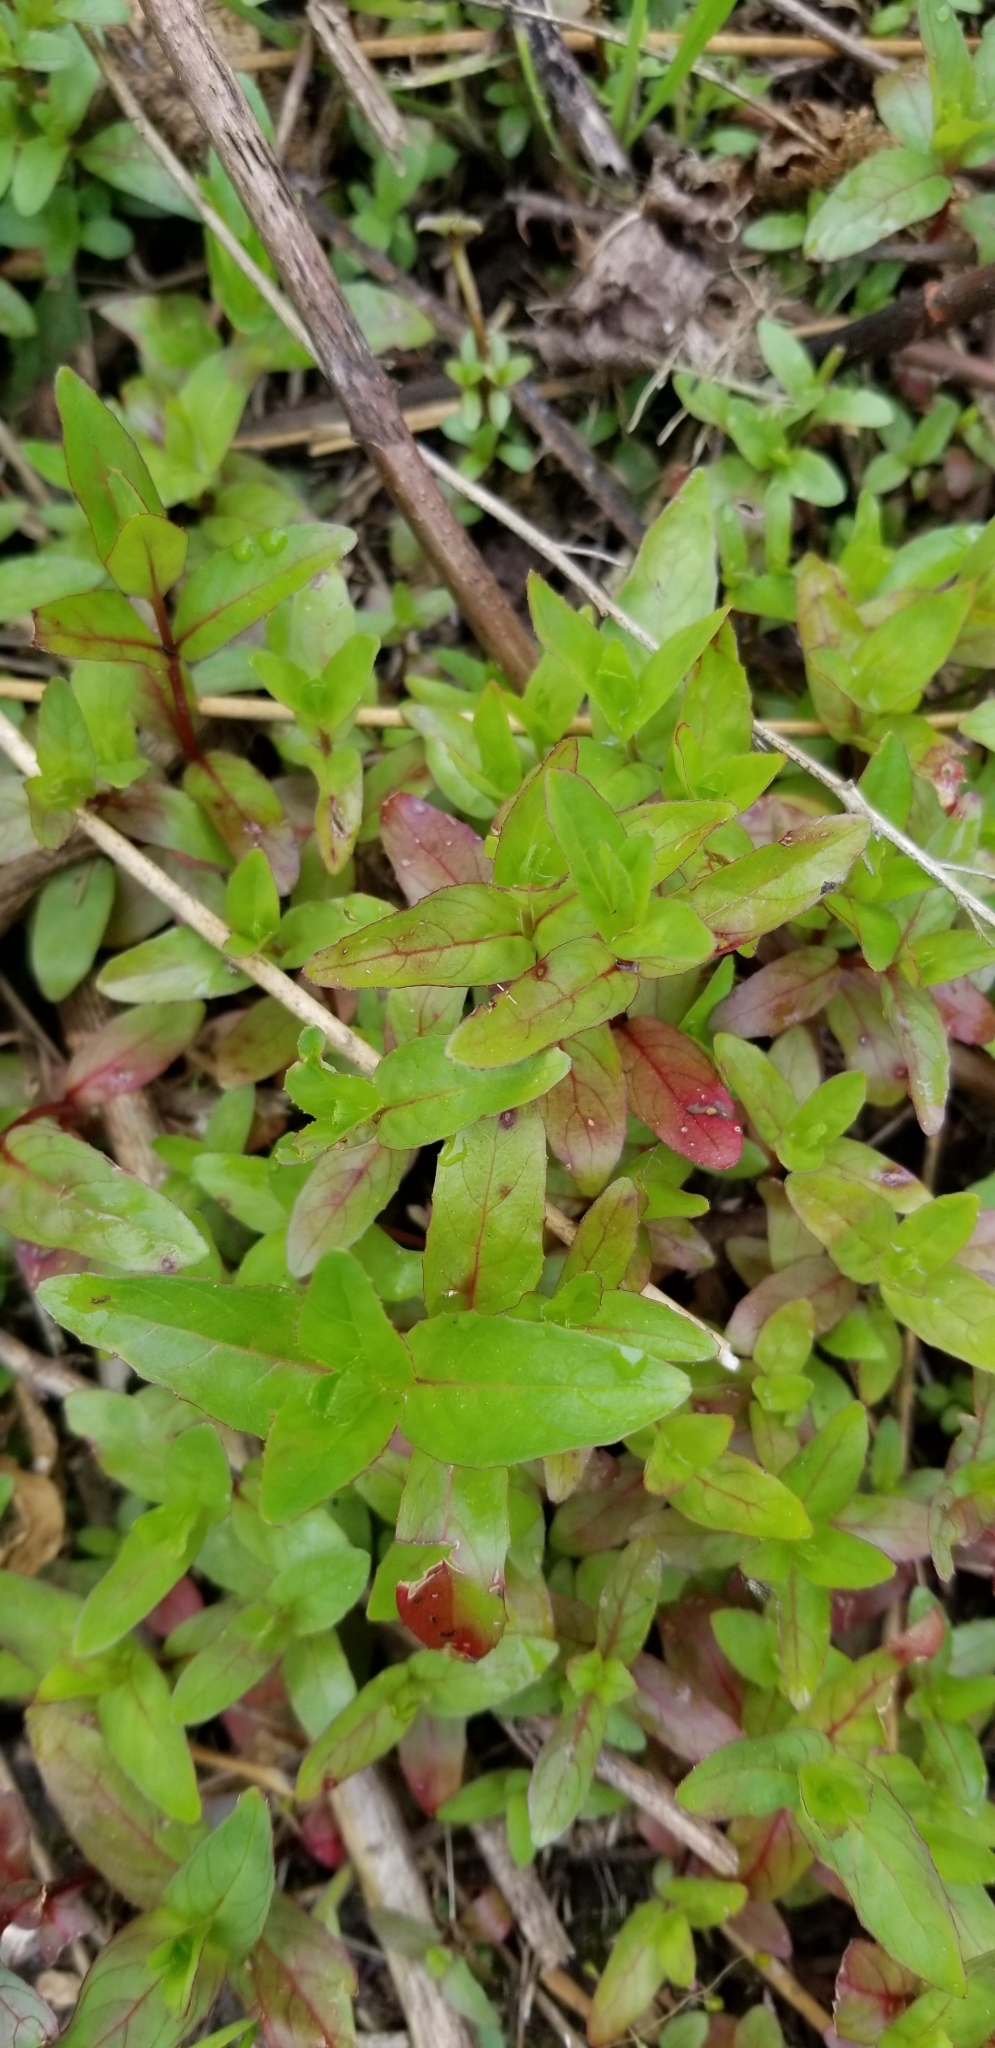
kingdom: Plantae
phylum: Tracheophyta
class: Magnoliopsida
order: Myrtales
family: Onagraceae
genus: Epilobium
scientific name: Epilobium ciliatum
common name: American willowherb
